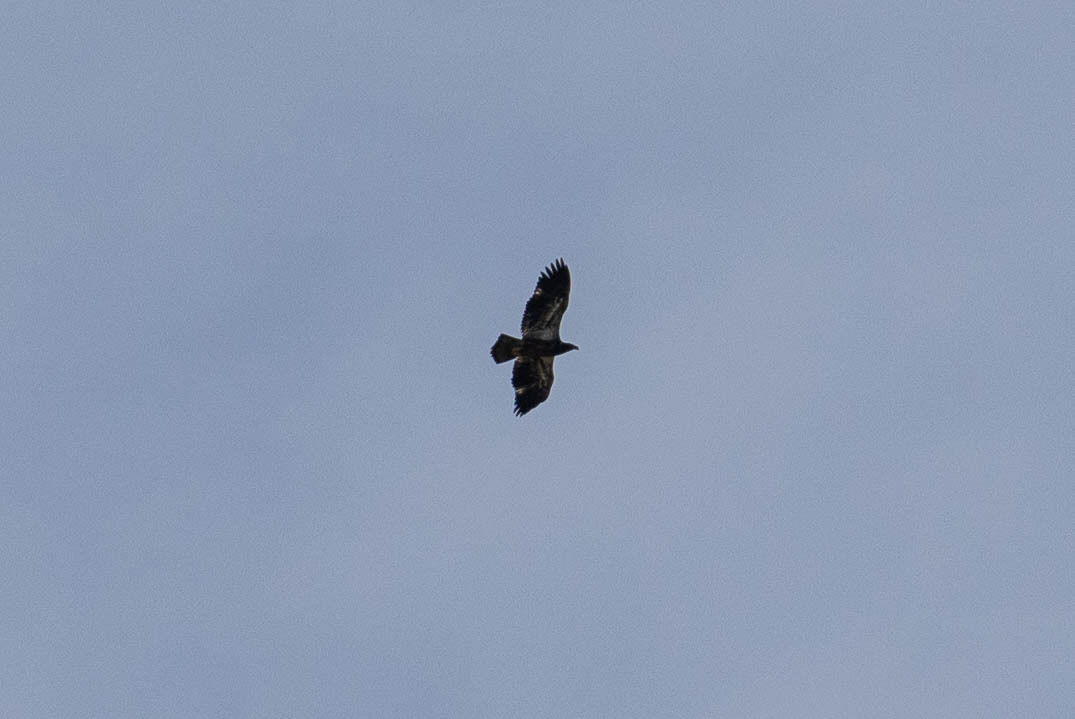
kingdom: Animalia
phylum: Chordata
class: Aves
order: Accipitriformes
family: Accipitridae
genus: Haliaeetus
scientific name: Haliaeetus leucocephalus
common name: Bald eagle
